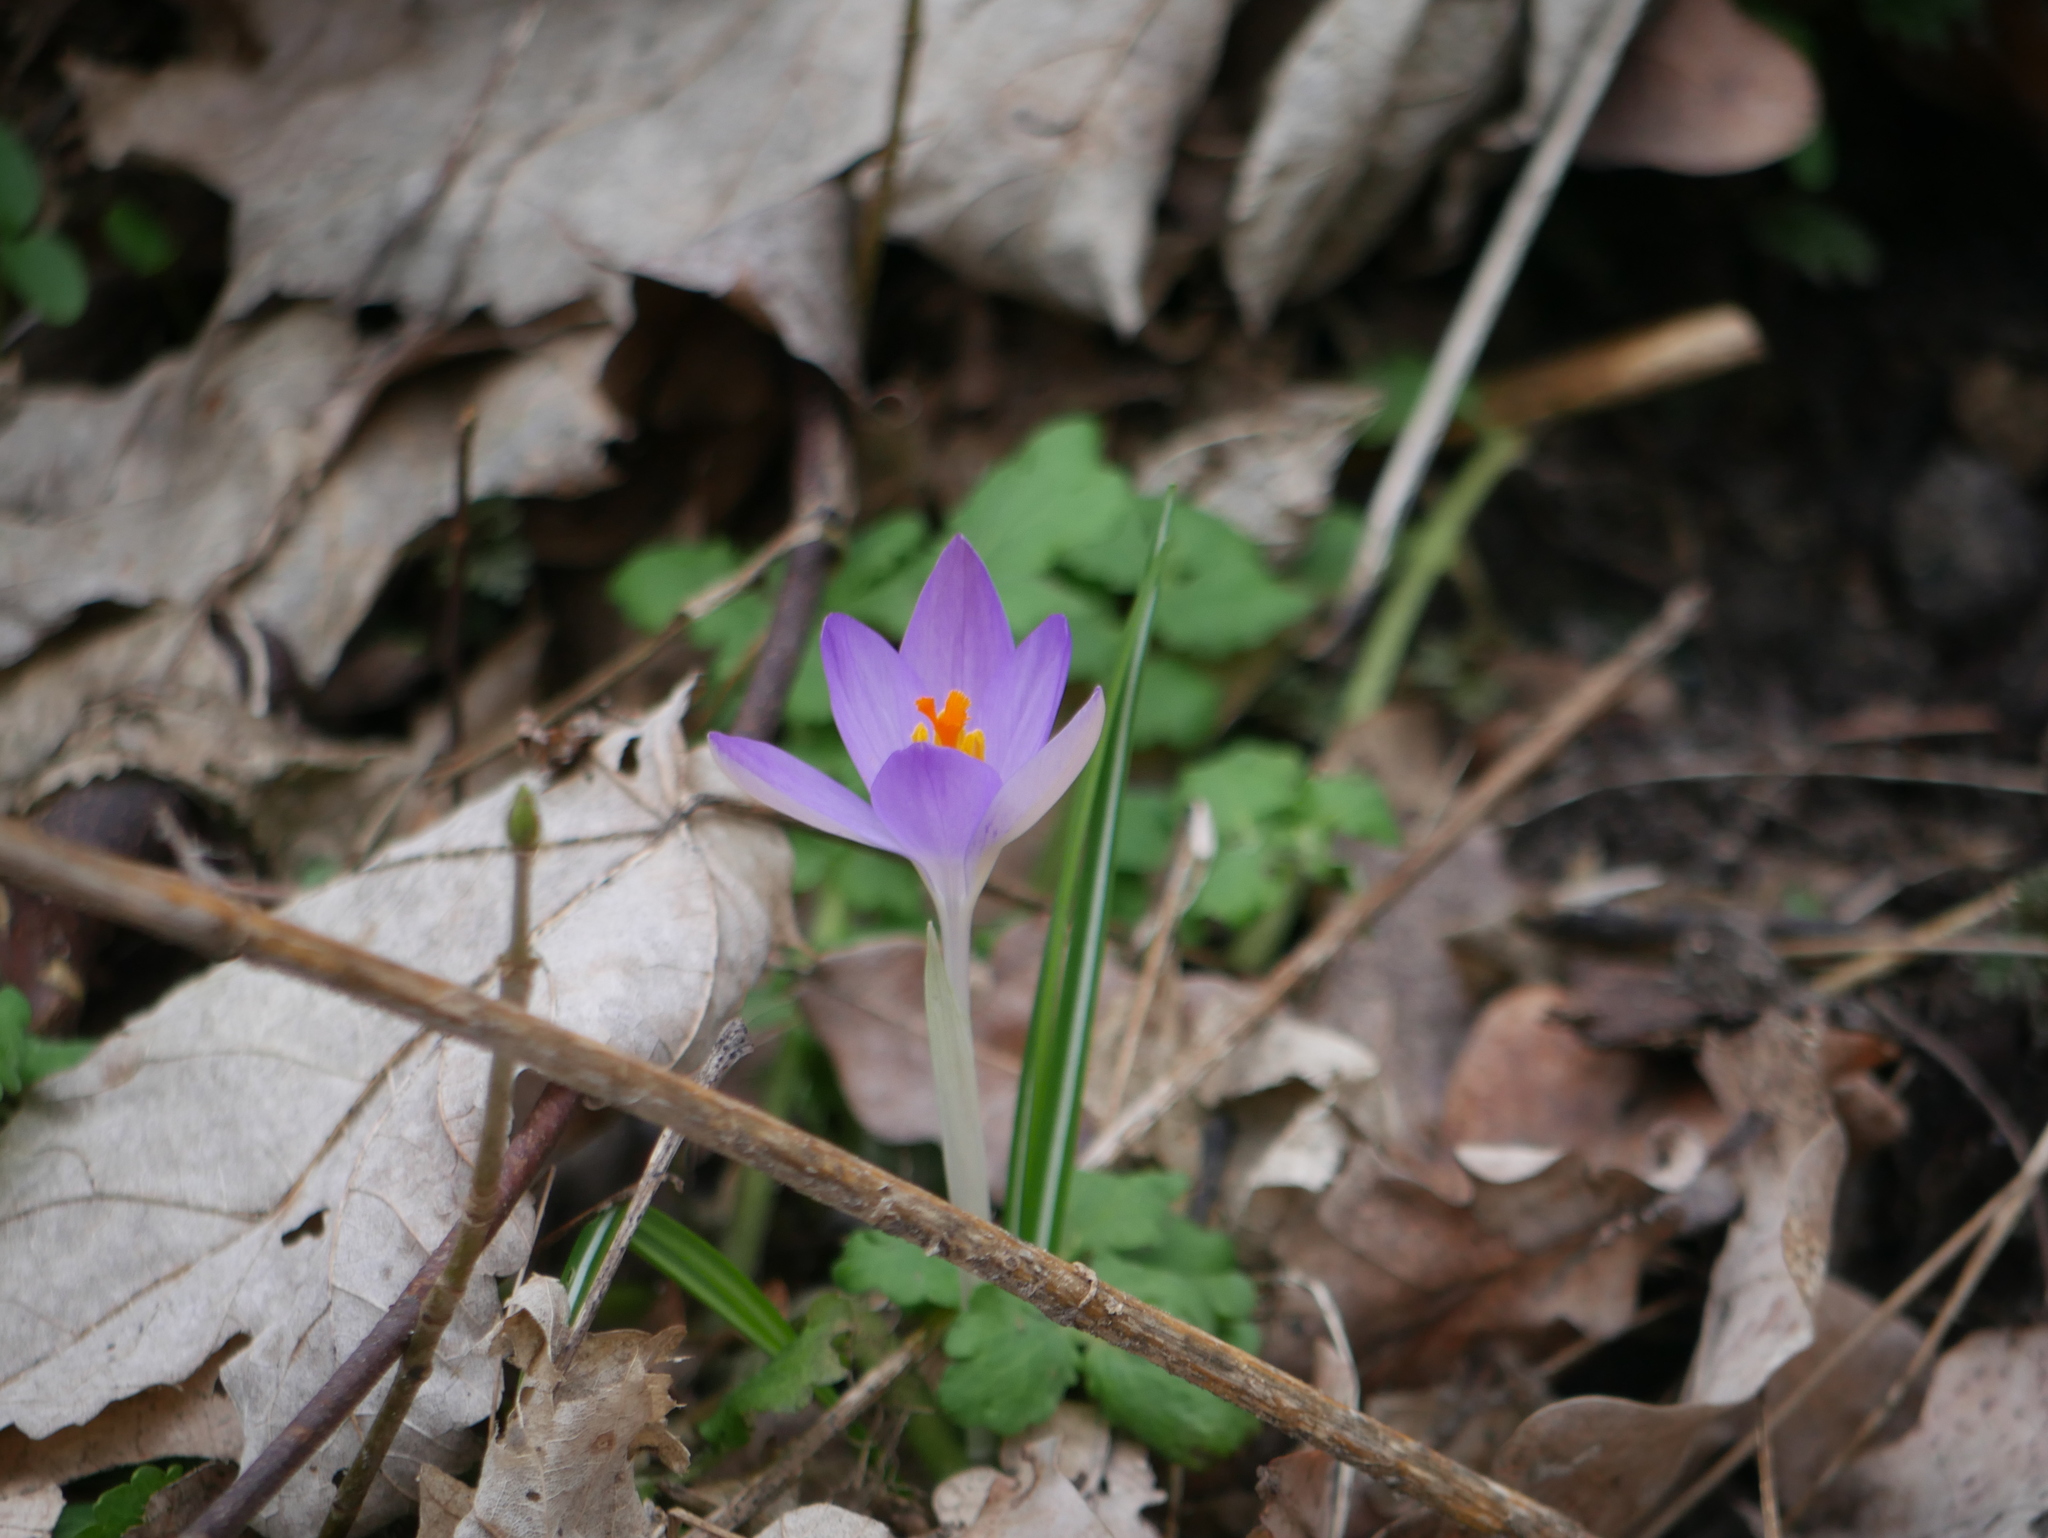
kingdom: Plantae
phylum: Tracheophyta
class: Liliopsida
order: Asparagales
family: Iridaceae
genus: Crocus
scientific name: Crocus tommasinianus
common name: Early crocus
